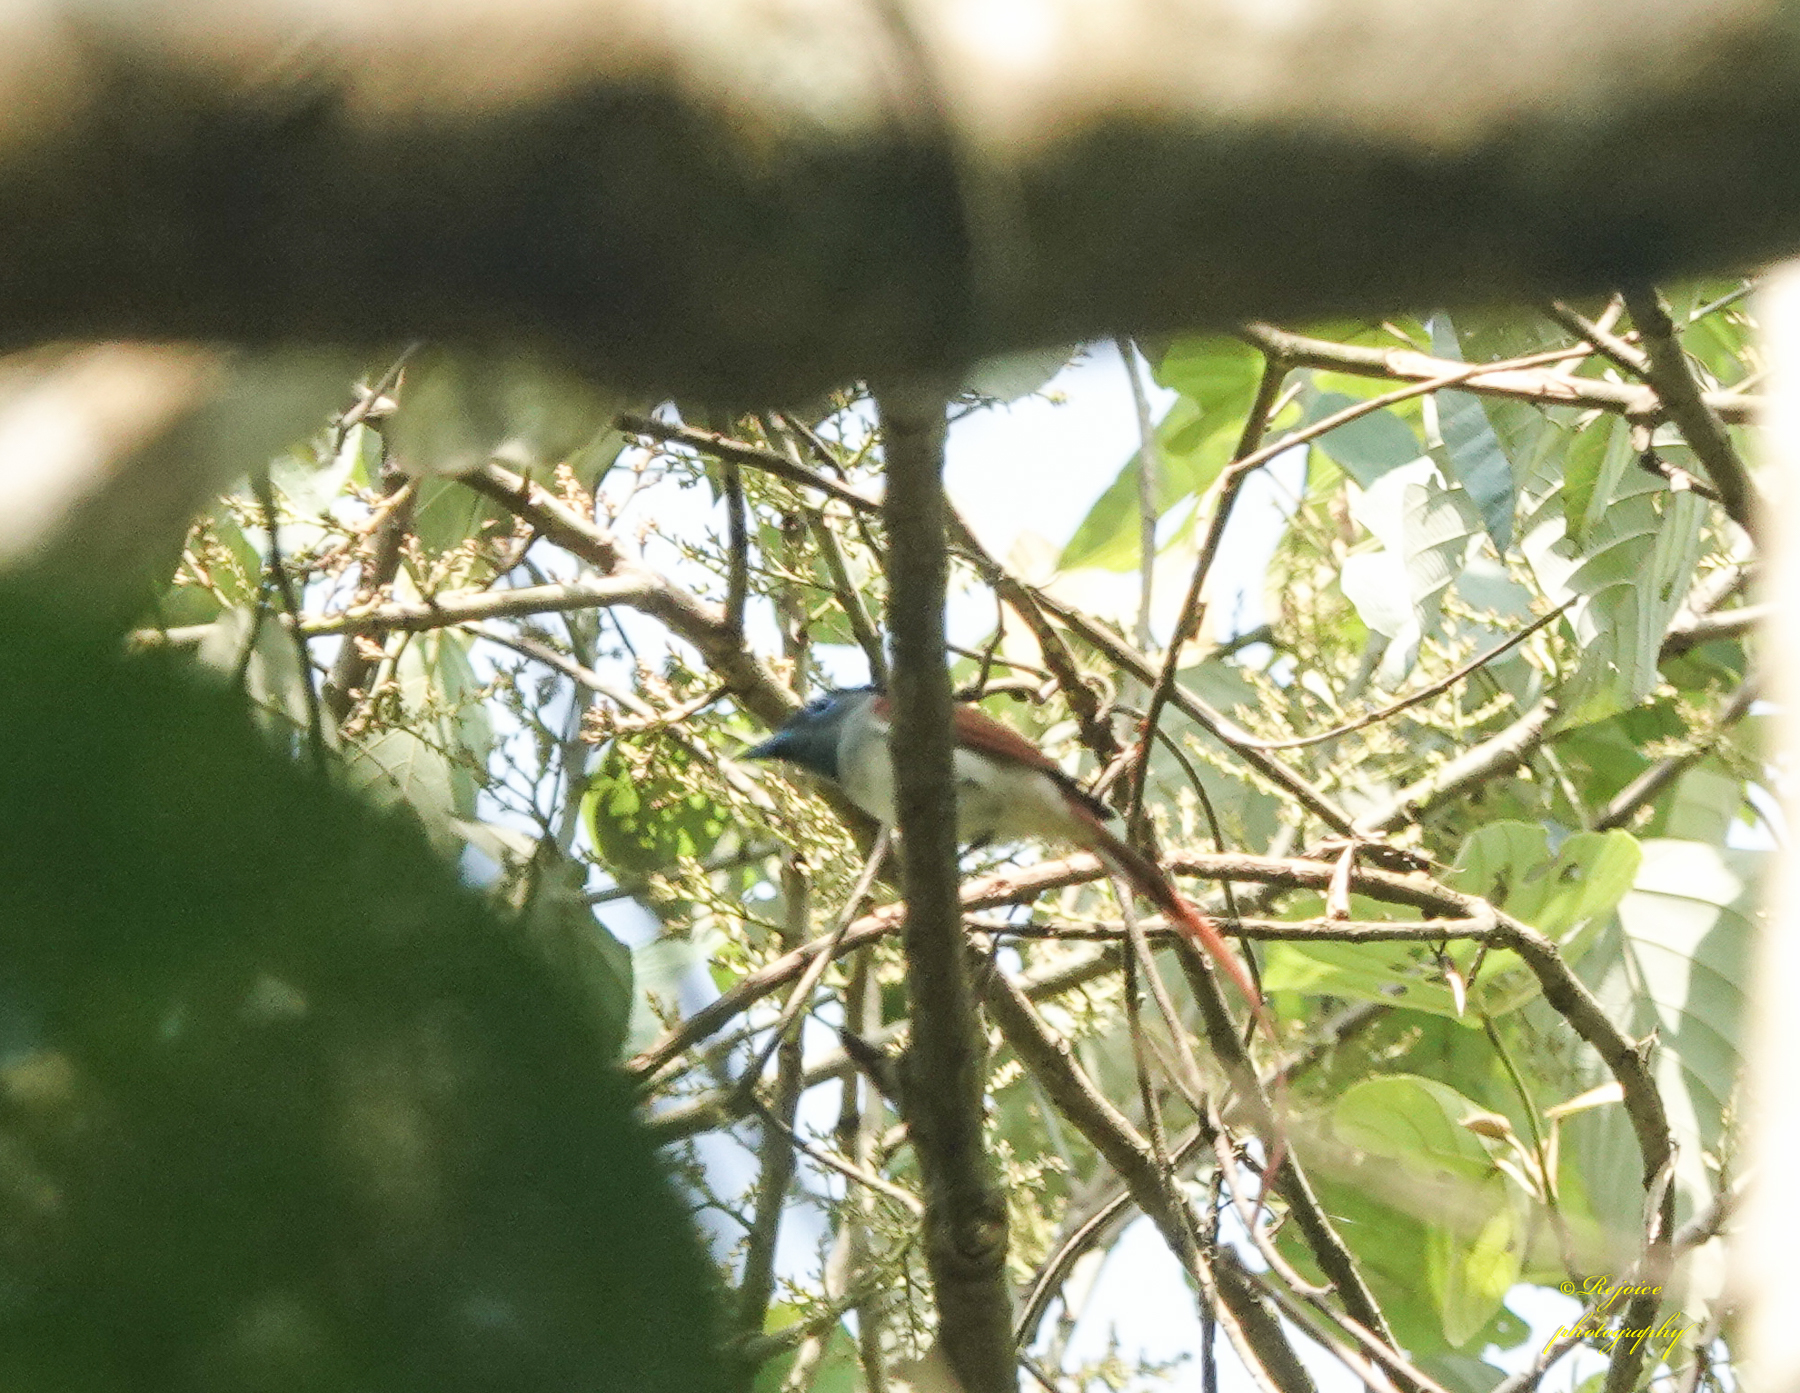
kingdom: Animalia
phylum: Chordata
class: Aves
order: Passeriformes
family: Monarchidae
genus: Terpsiphone
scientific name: Terpsiphone paradisi
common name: Indian paradise flycatcher
